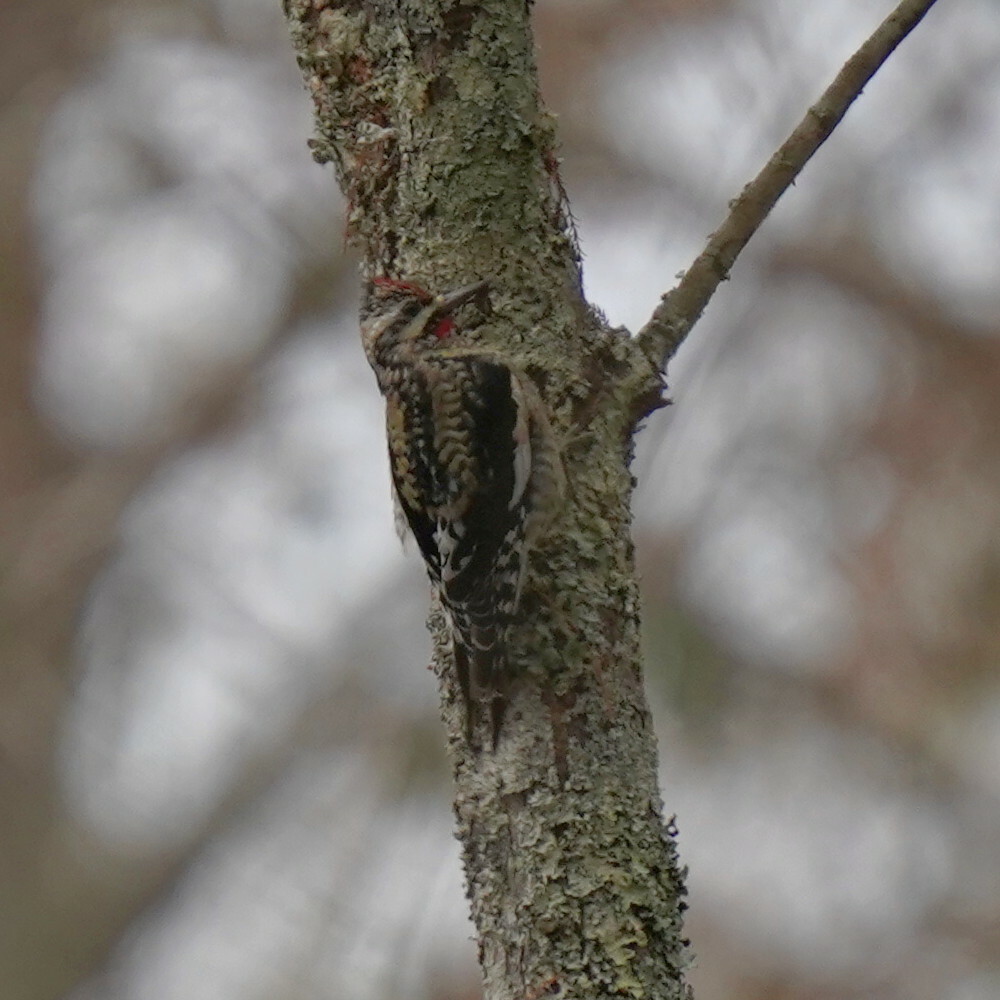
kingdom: Animalia
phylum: Chordata
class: Aves
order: Piciformes
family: Picidae
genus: Sphyrapicus
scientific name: Sphyrapicus varius
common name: Yellow-bellied sapsucker
